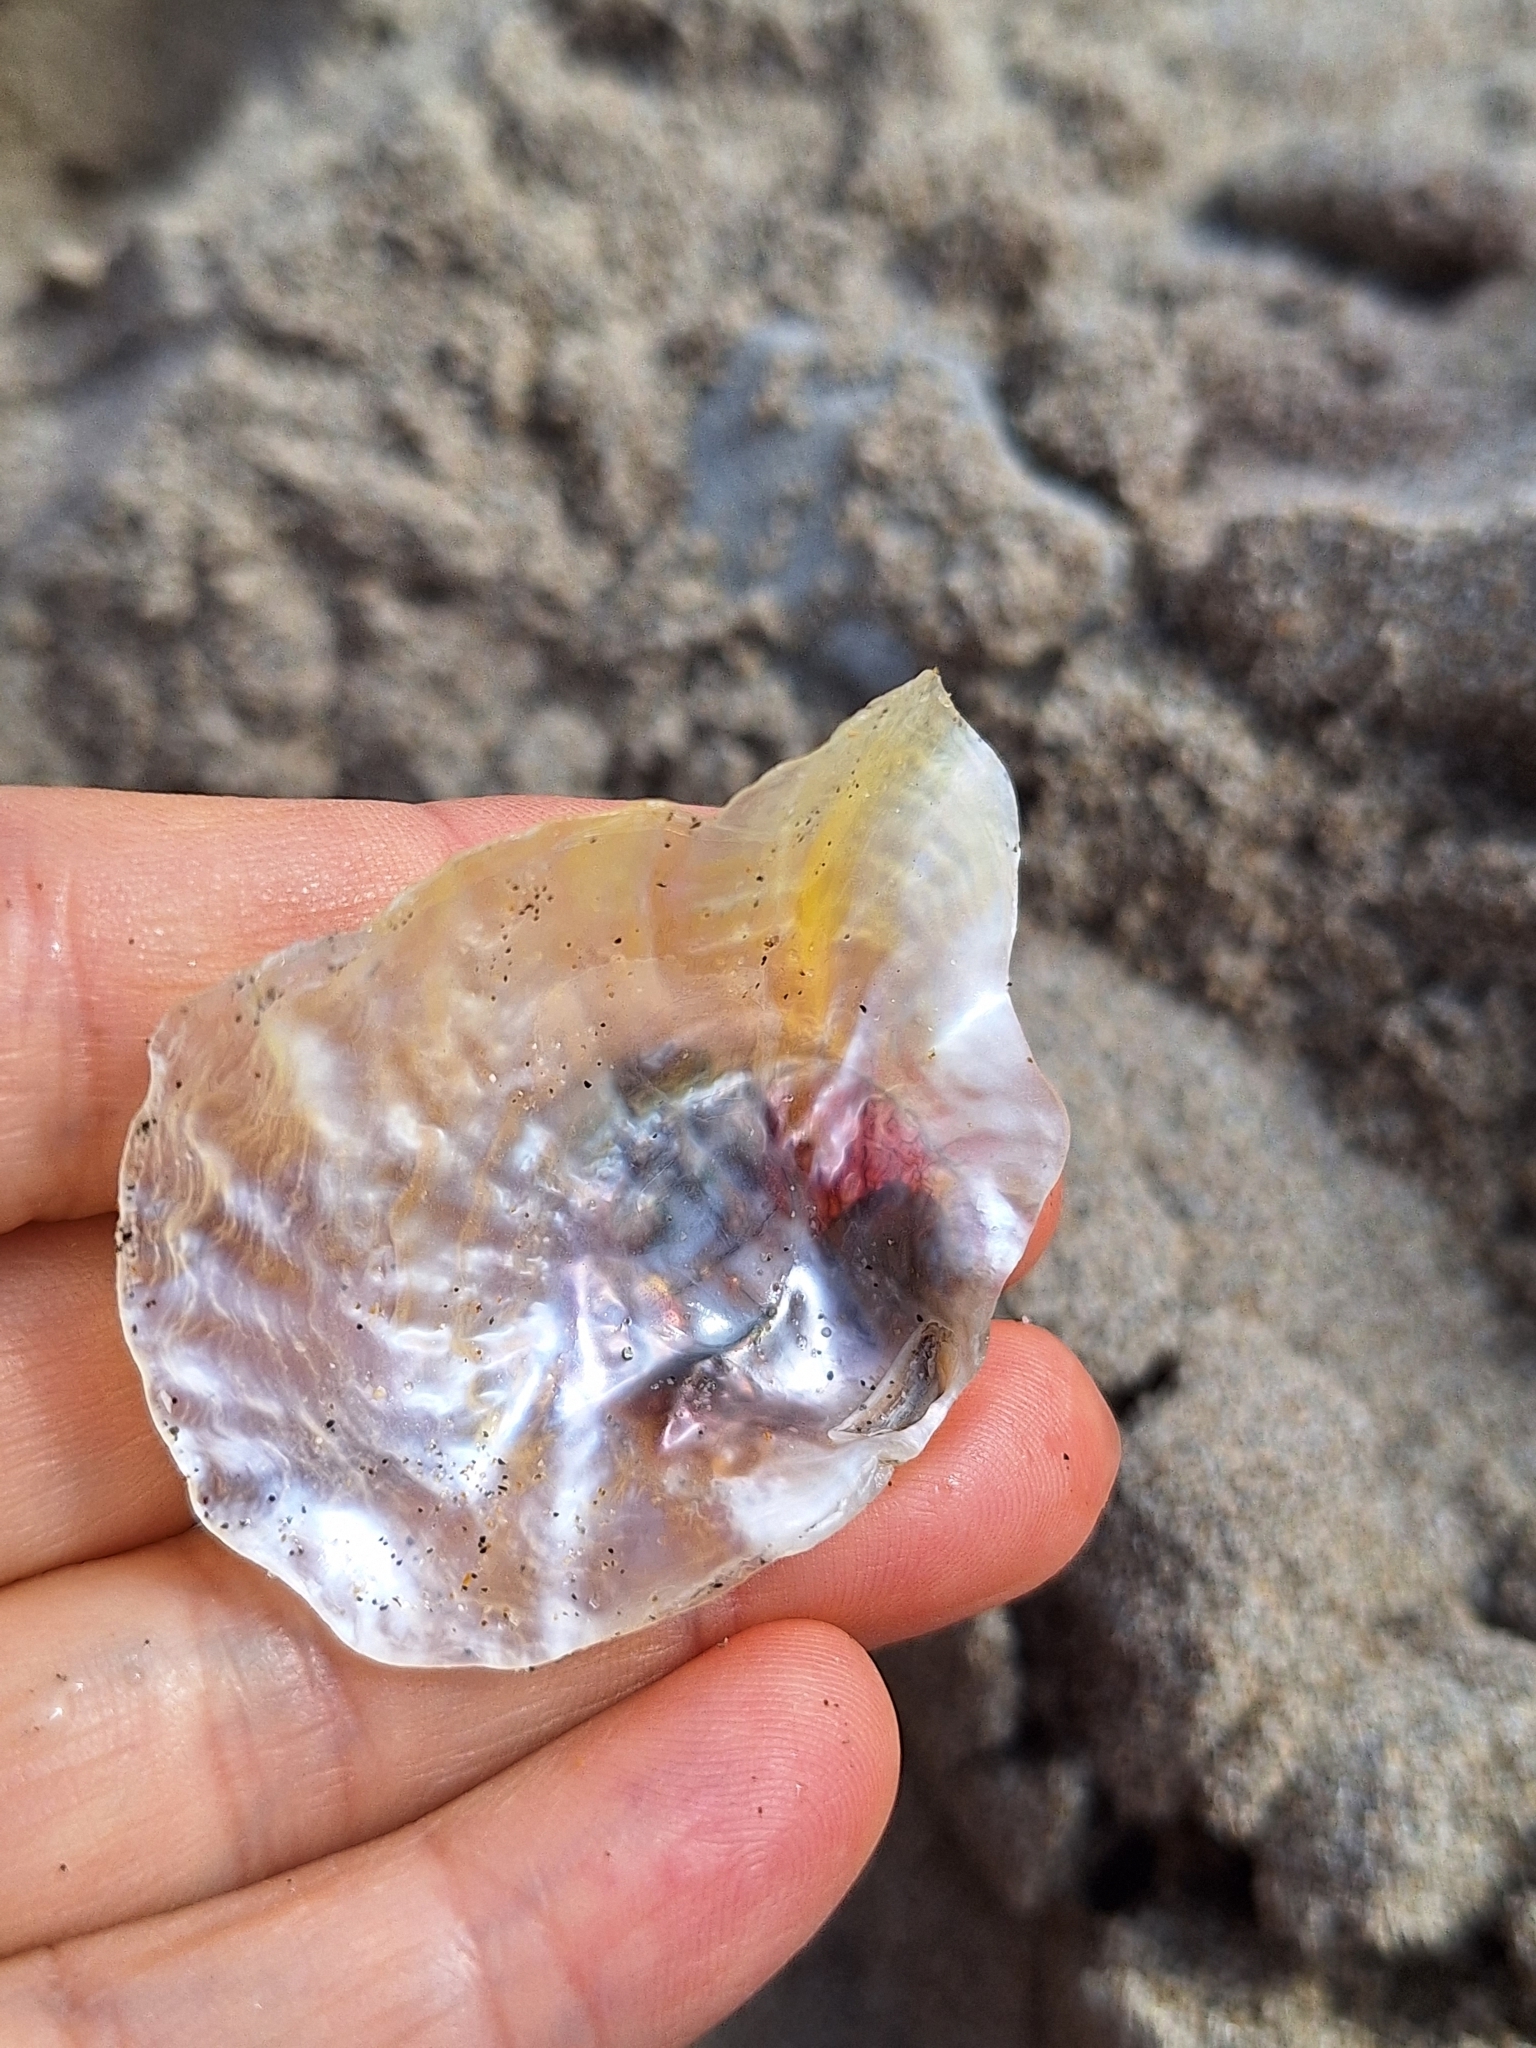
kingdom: Animalia
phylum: Mollusca
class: Bivalvia
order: Pectinida
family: Anomiidae
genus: Anomia
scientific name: Anomia ephippium
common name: Saddle oyster
